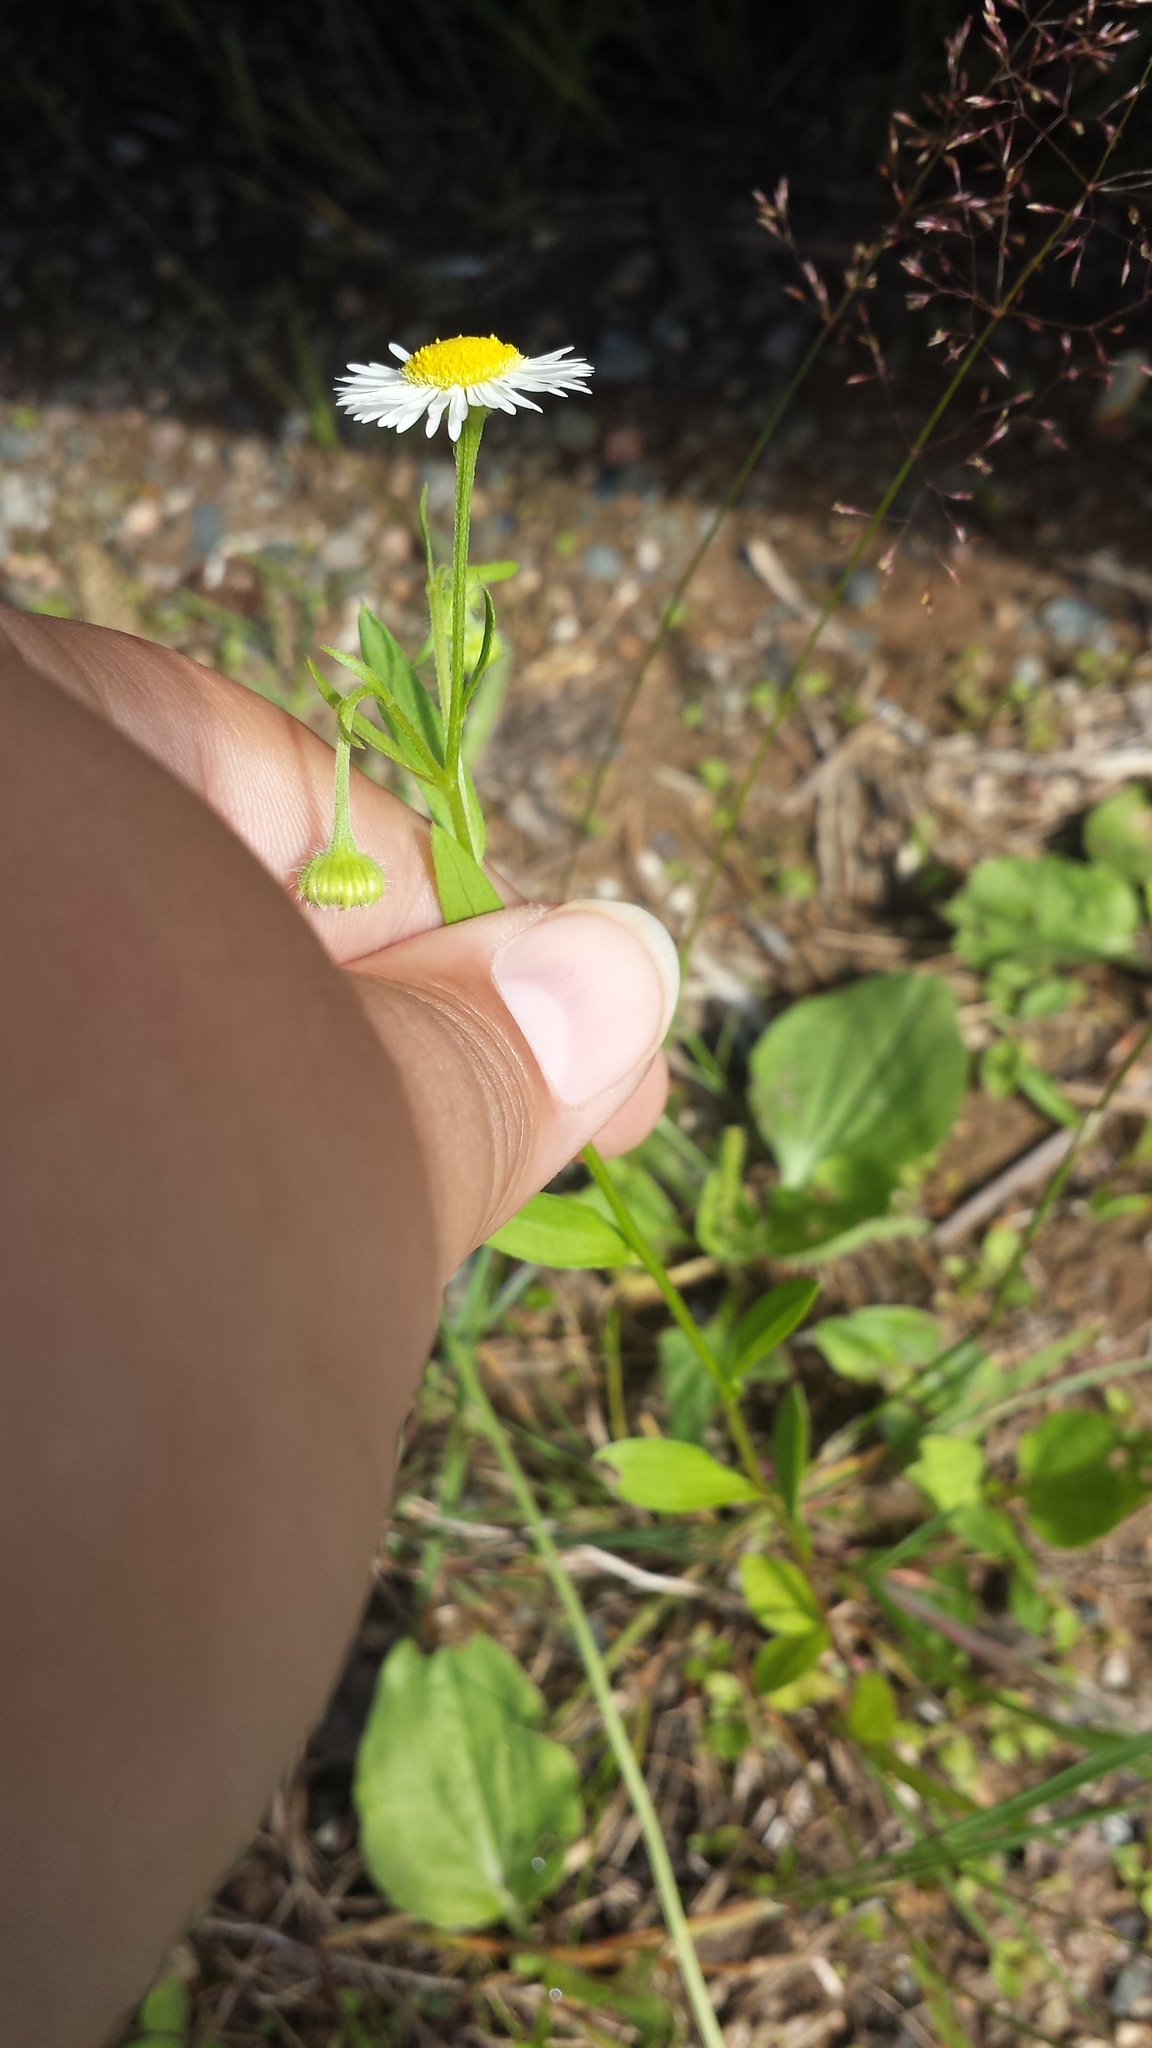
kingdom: Plantae
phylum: Tracheophyta
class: Magnoliopsida
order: Asterales
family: Asteraceae
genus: Erigeron
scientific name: Erigeron strigosus
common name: Common eastern fleabane
